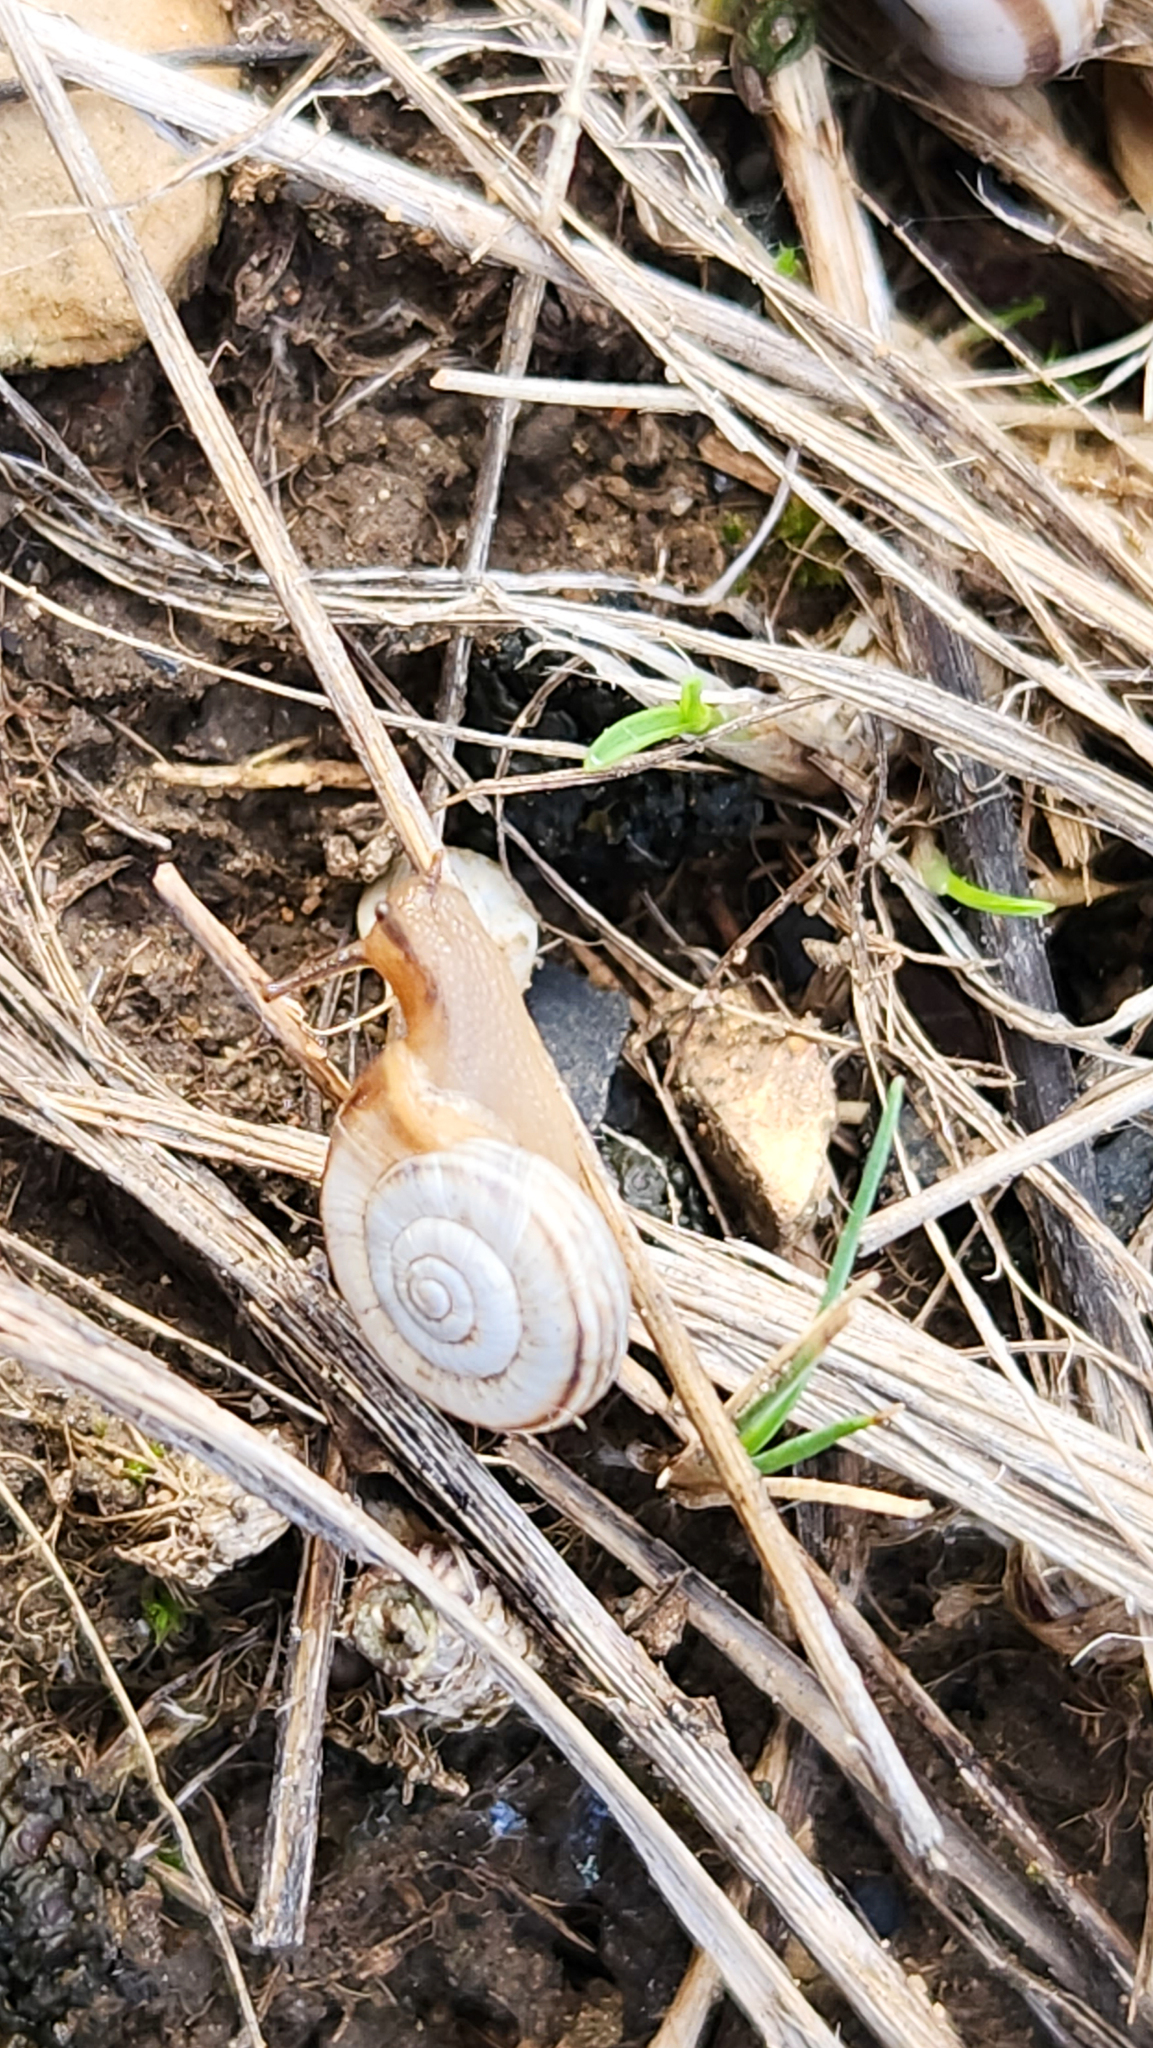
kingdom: Animalia
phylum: Mollusca
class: Gastropoda
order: Stylommatophora
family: Geomitridae
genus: Xerolenta
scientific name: Xerolenta obvia
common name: White heath snail
